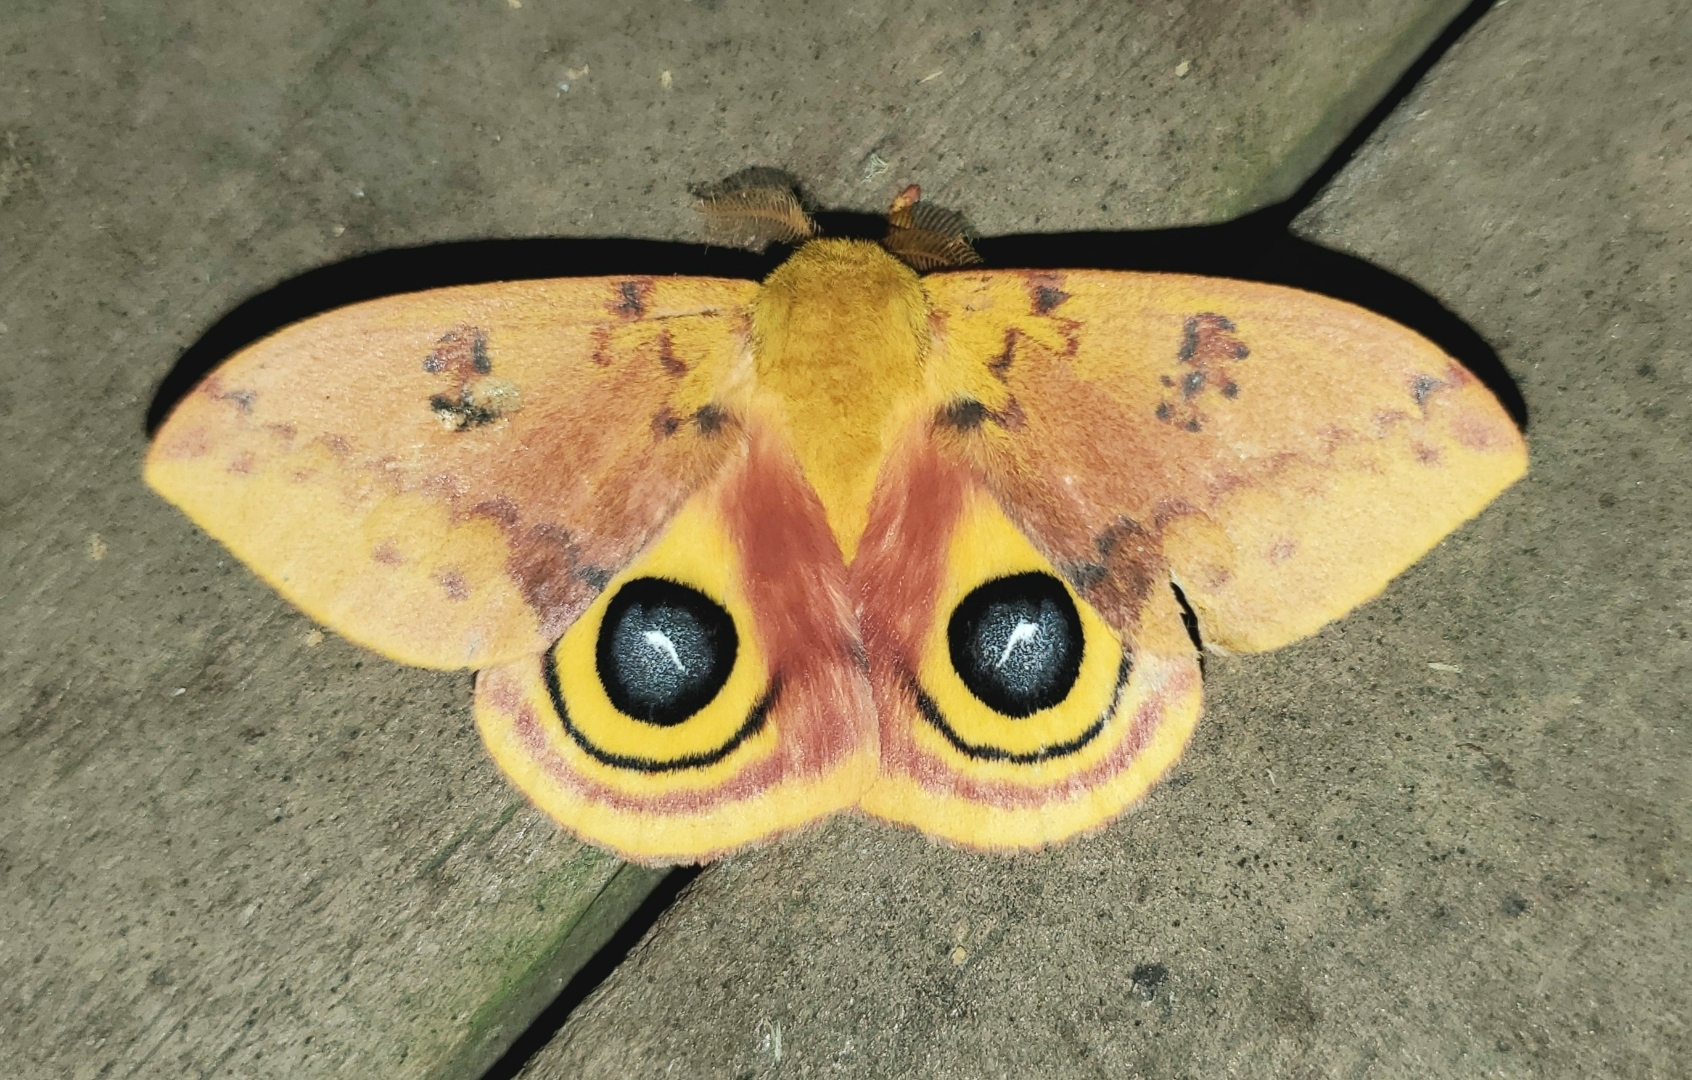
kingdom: Animalia
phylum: Arthropoda
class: Insecta
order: Lepidoptera
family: Saturniidae
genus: Automeris
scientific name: Automeris io
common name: Io moth
